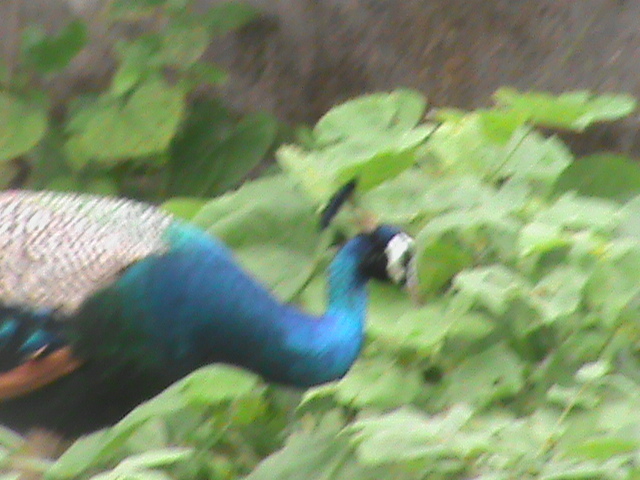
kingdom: Animalia
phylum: Chordata
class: Aves
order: Galliformes
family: Phasianidae
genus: Pavo
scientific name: Pavo cristatus
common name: Indian peafowl
